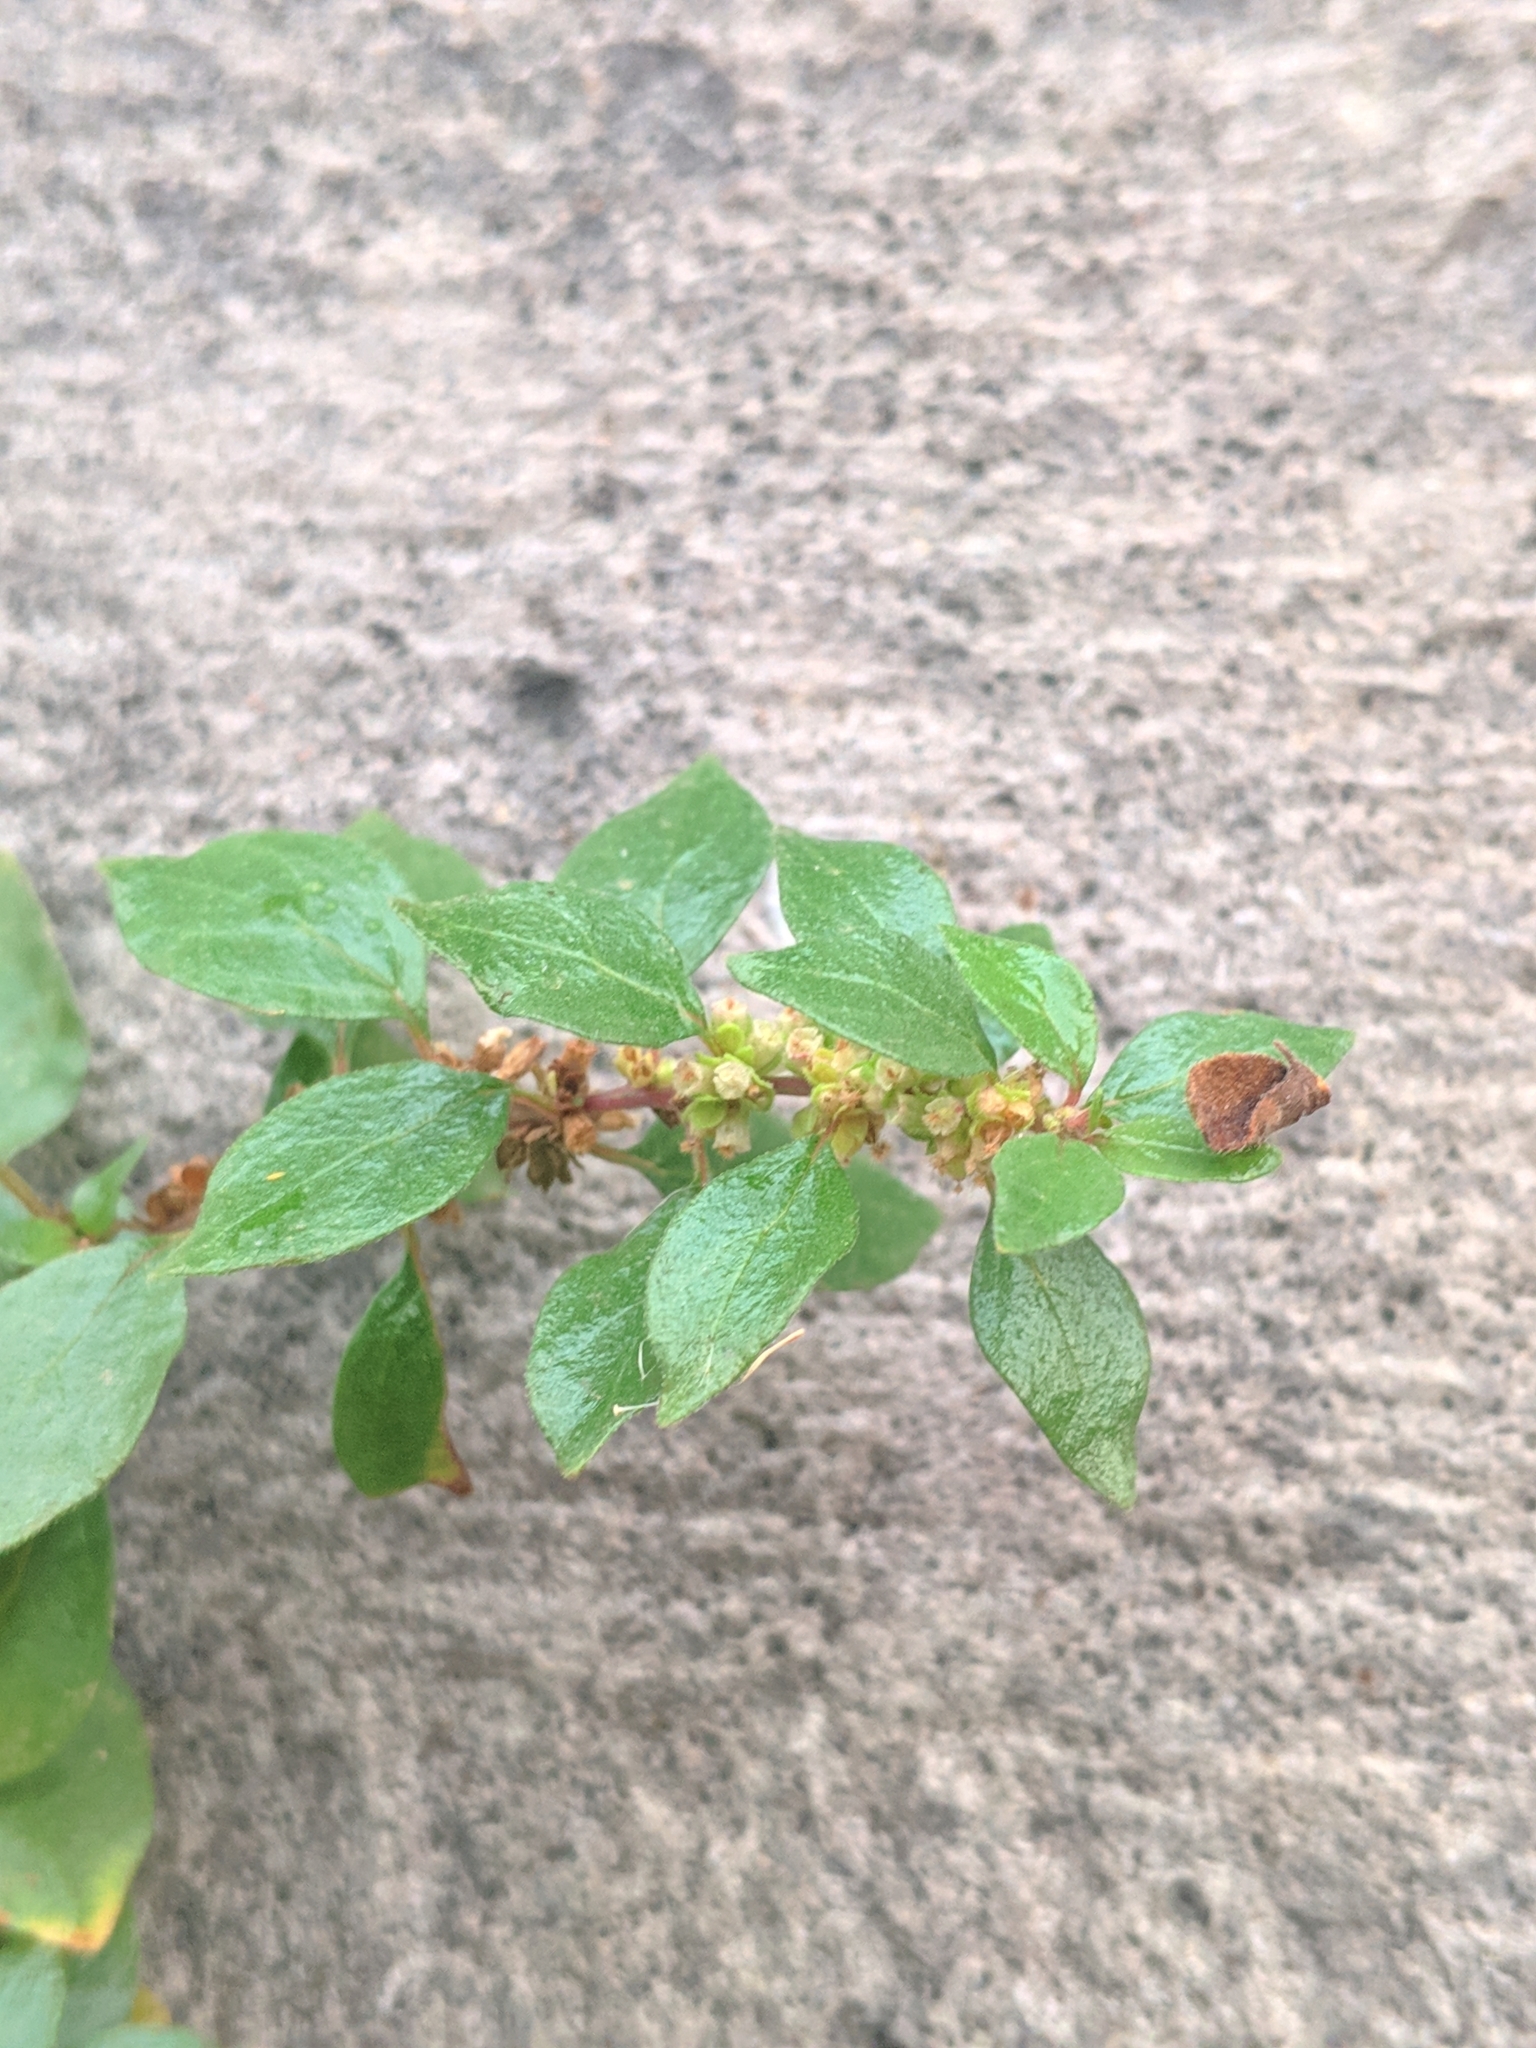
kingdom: Plantae
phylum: Tracheophyta
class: Magnoliopsida
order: Rosales
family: Urticaceae
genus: Parietaria
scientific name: Parietaria judaica
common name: Pellitory-of-the-wall
